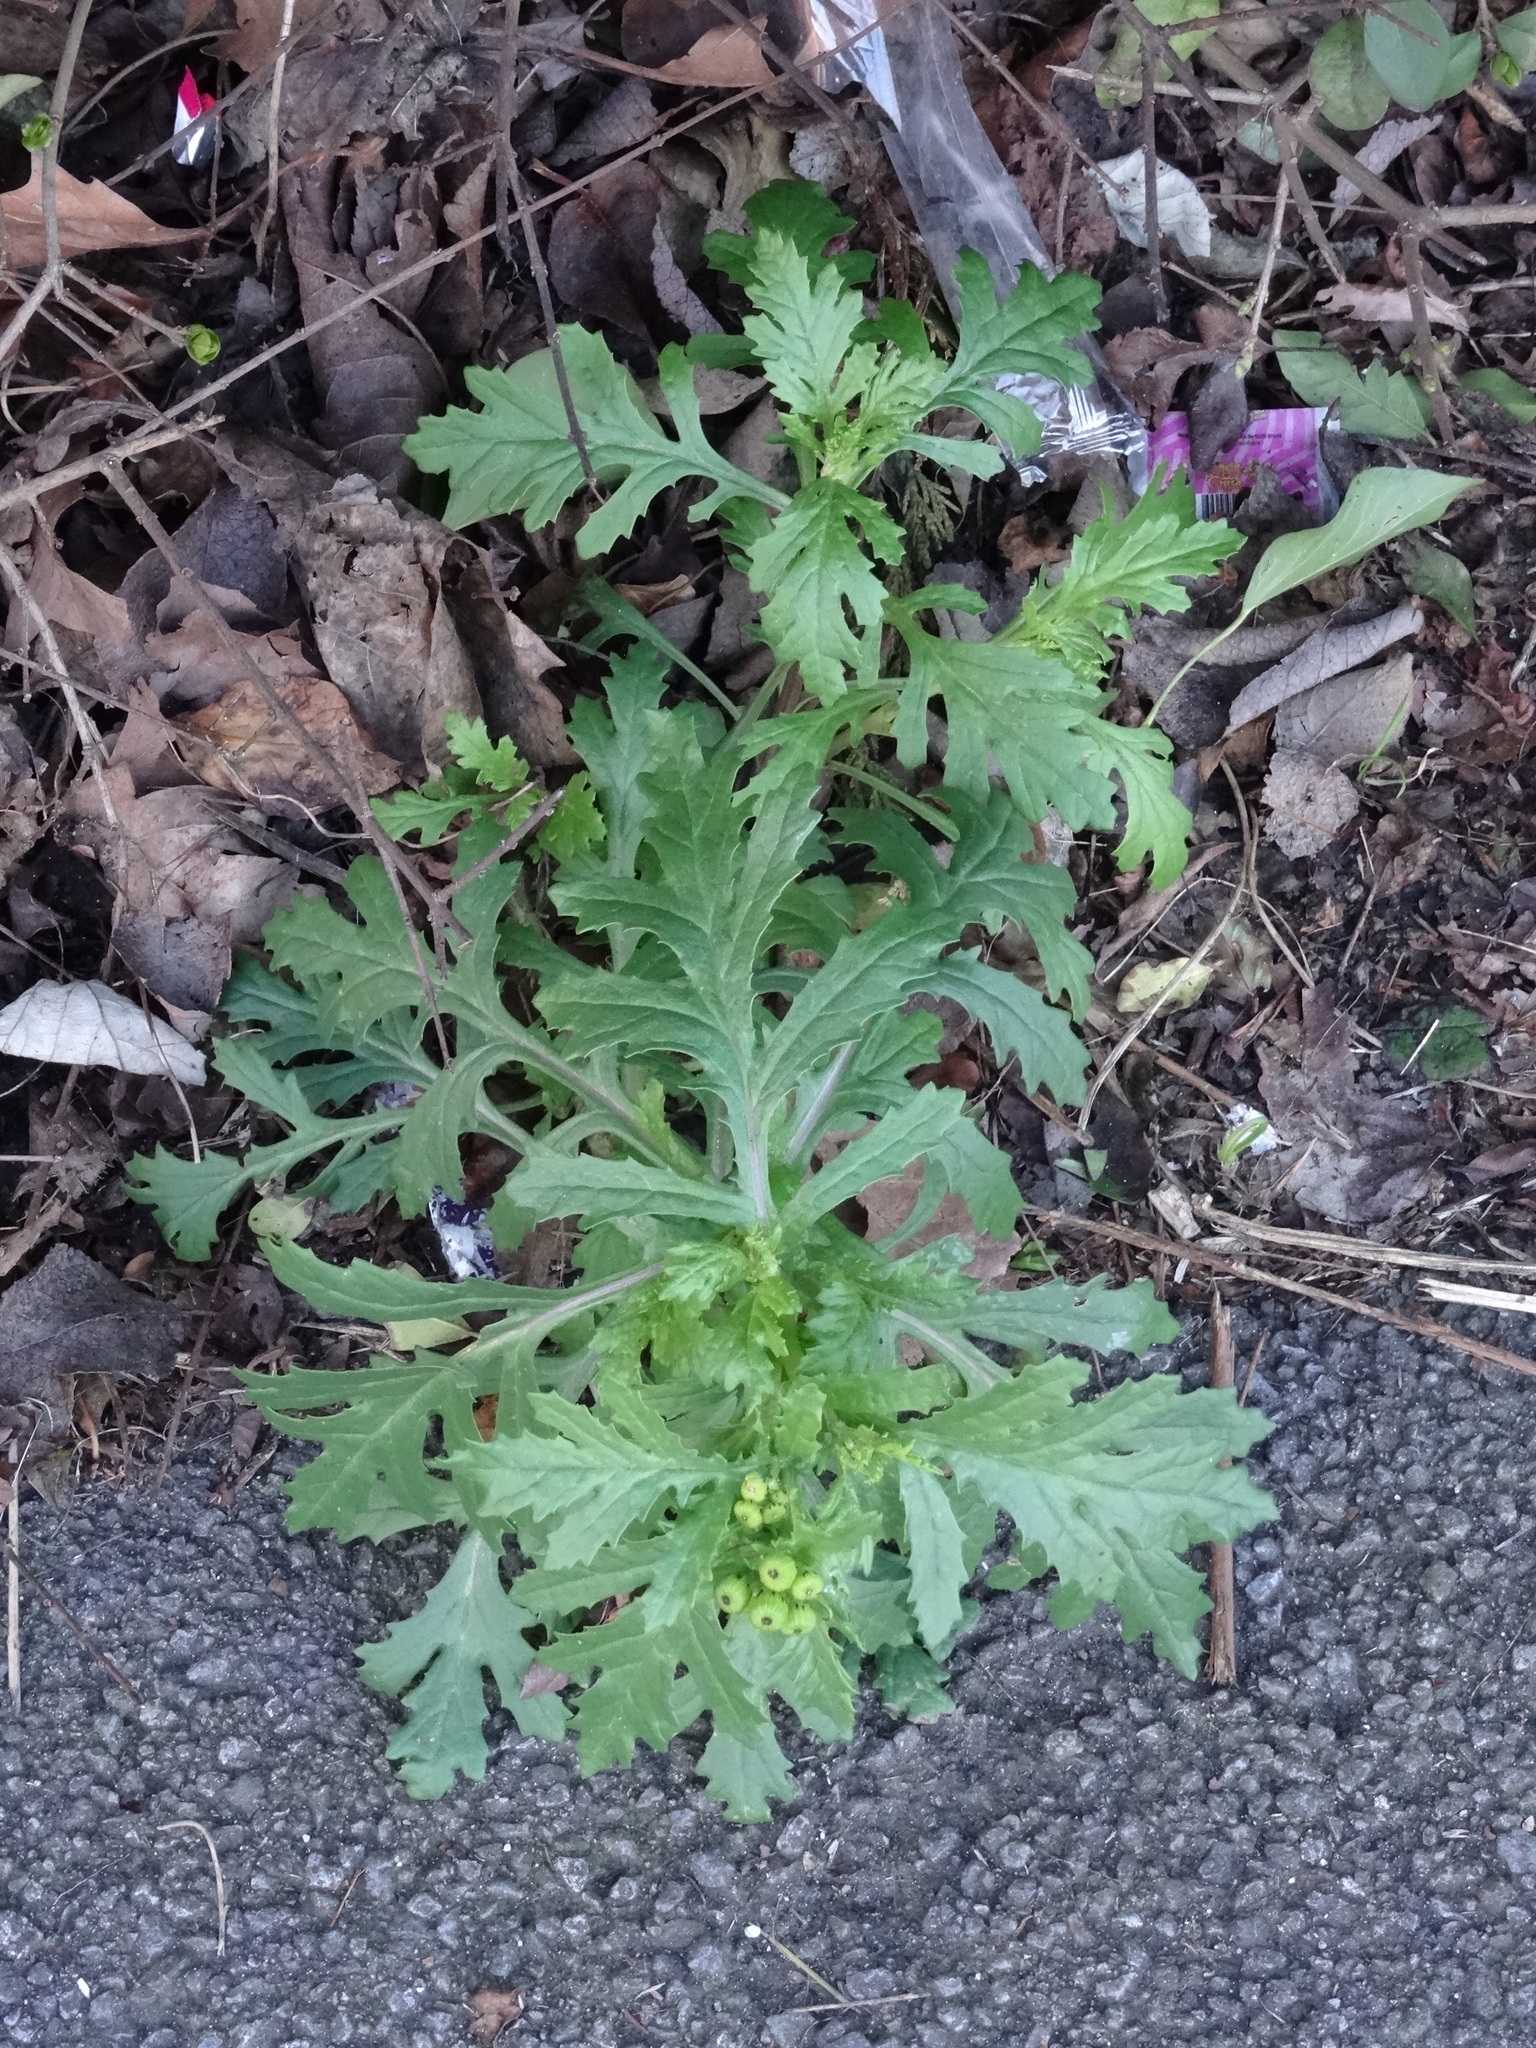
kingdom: Plantae
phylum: Tracheophyta
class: Magnoliopsida
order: Asterales
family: Asteraceae
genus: Senecio
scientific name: Senecio squalidus
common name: Oxford ragwort
